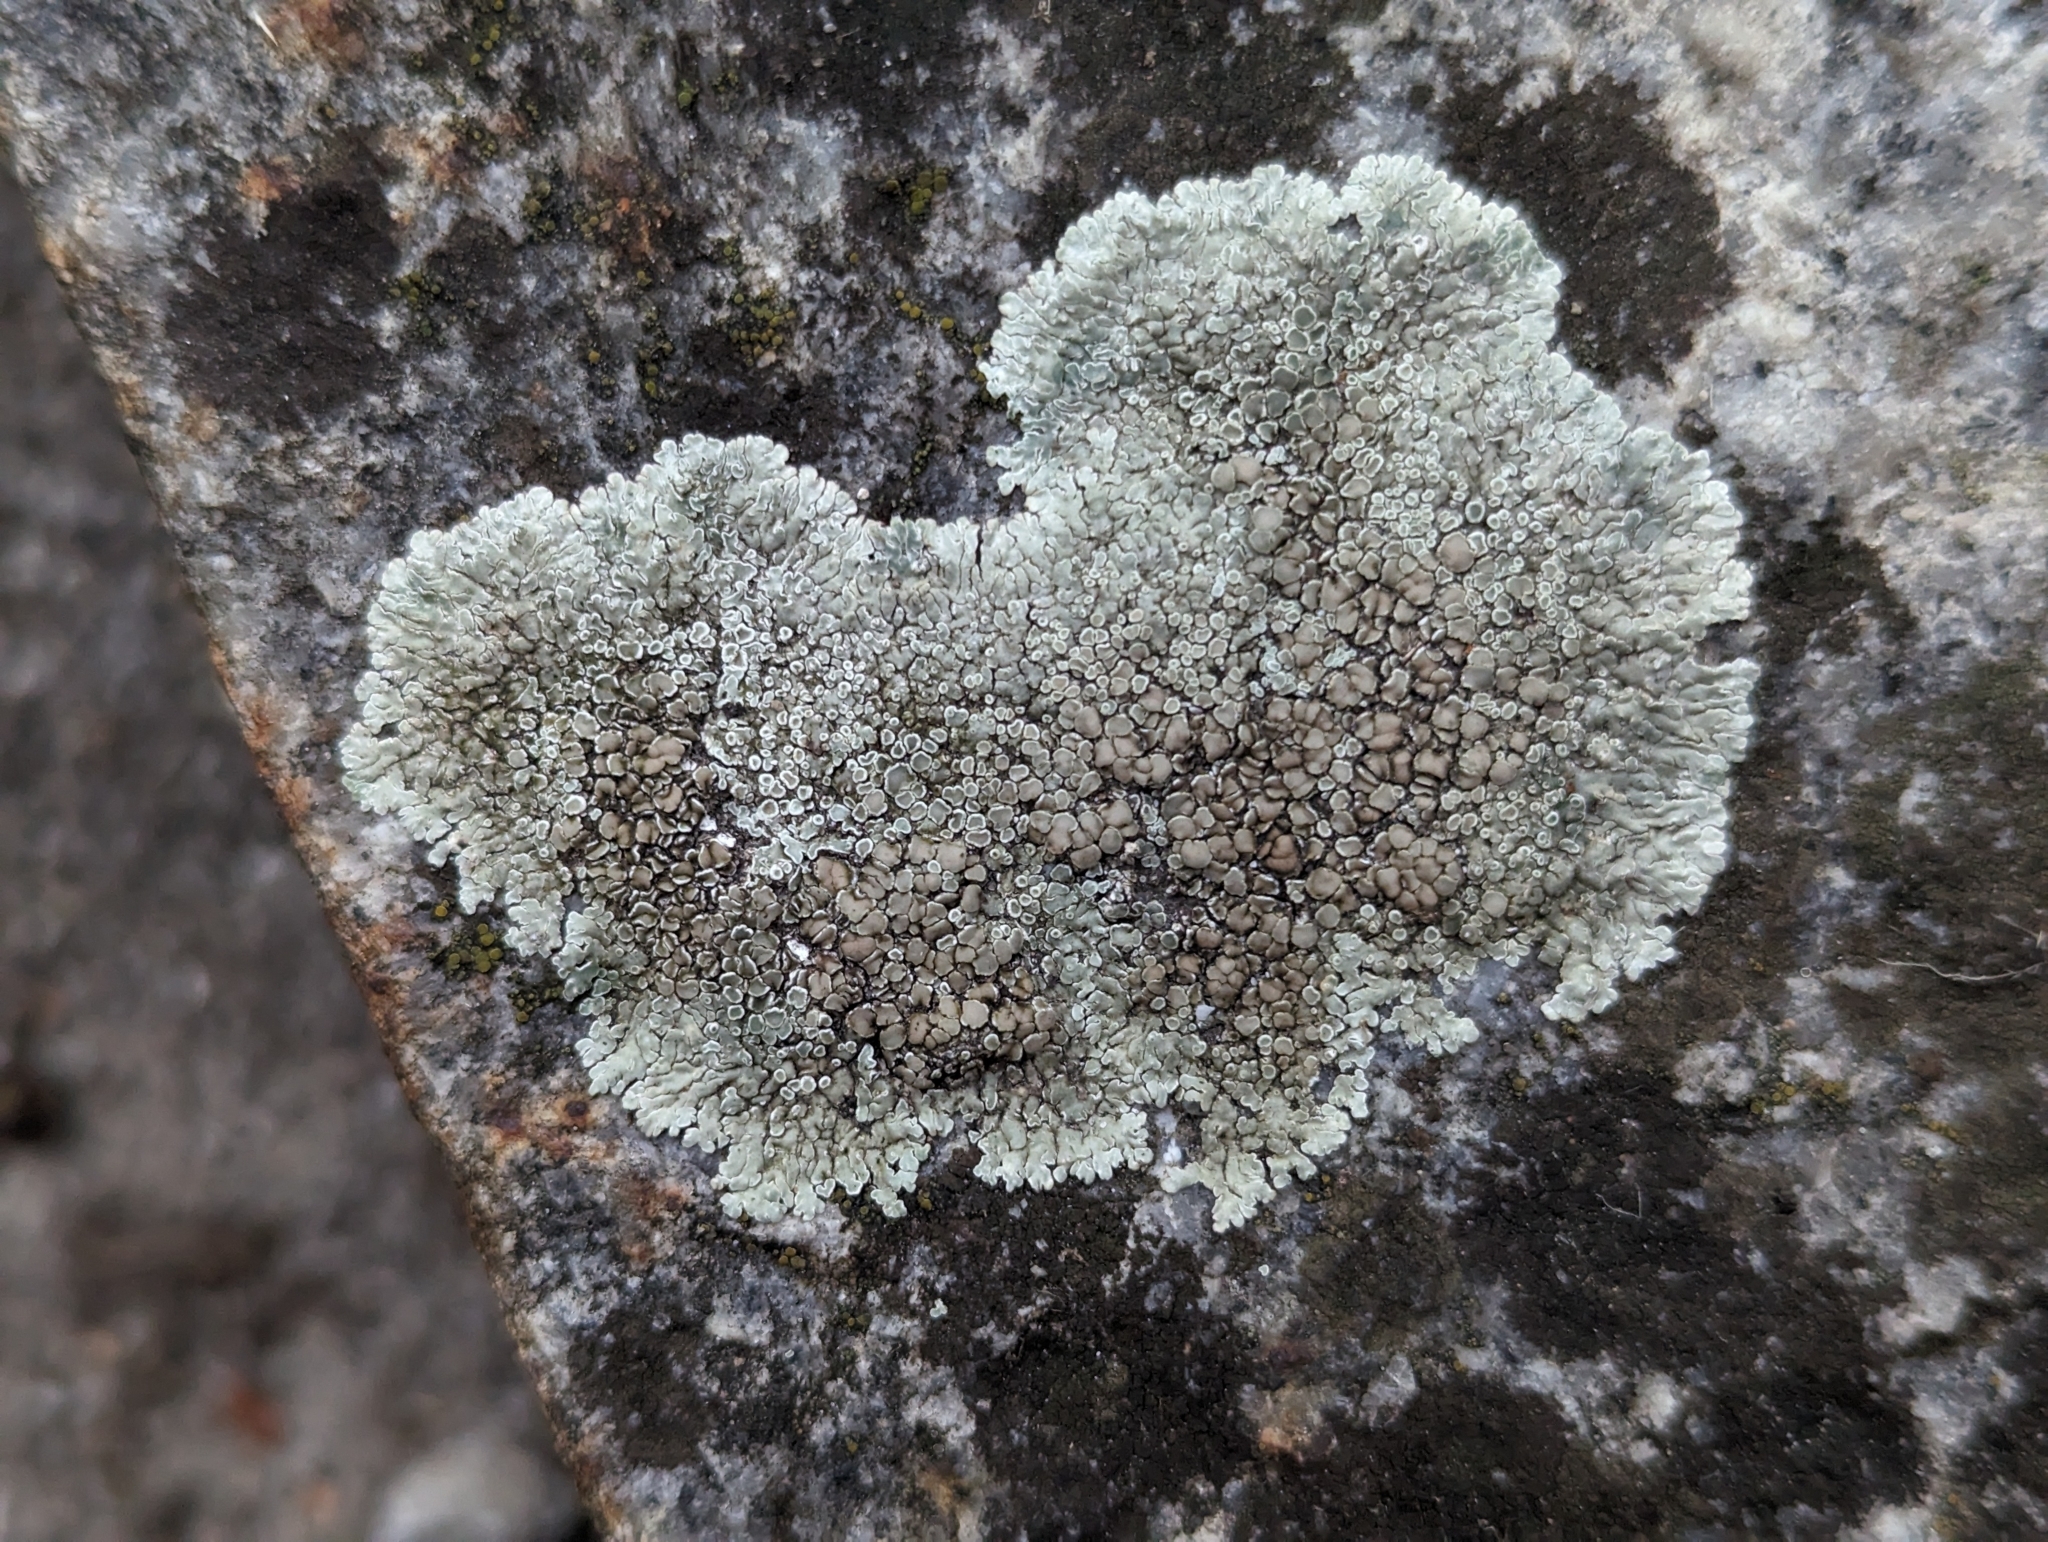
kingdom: Fungi
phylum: Ascomycota
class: Lecanoromycetes
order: Lecanorales
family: Lecanoraceae
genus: Protoparmeliopsis
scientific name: Protoparmeliopsis muralis
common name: Stonewall rim lichen
